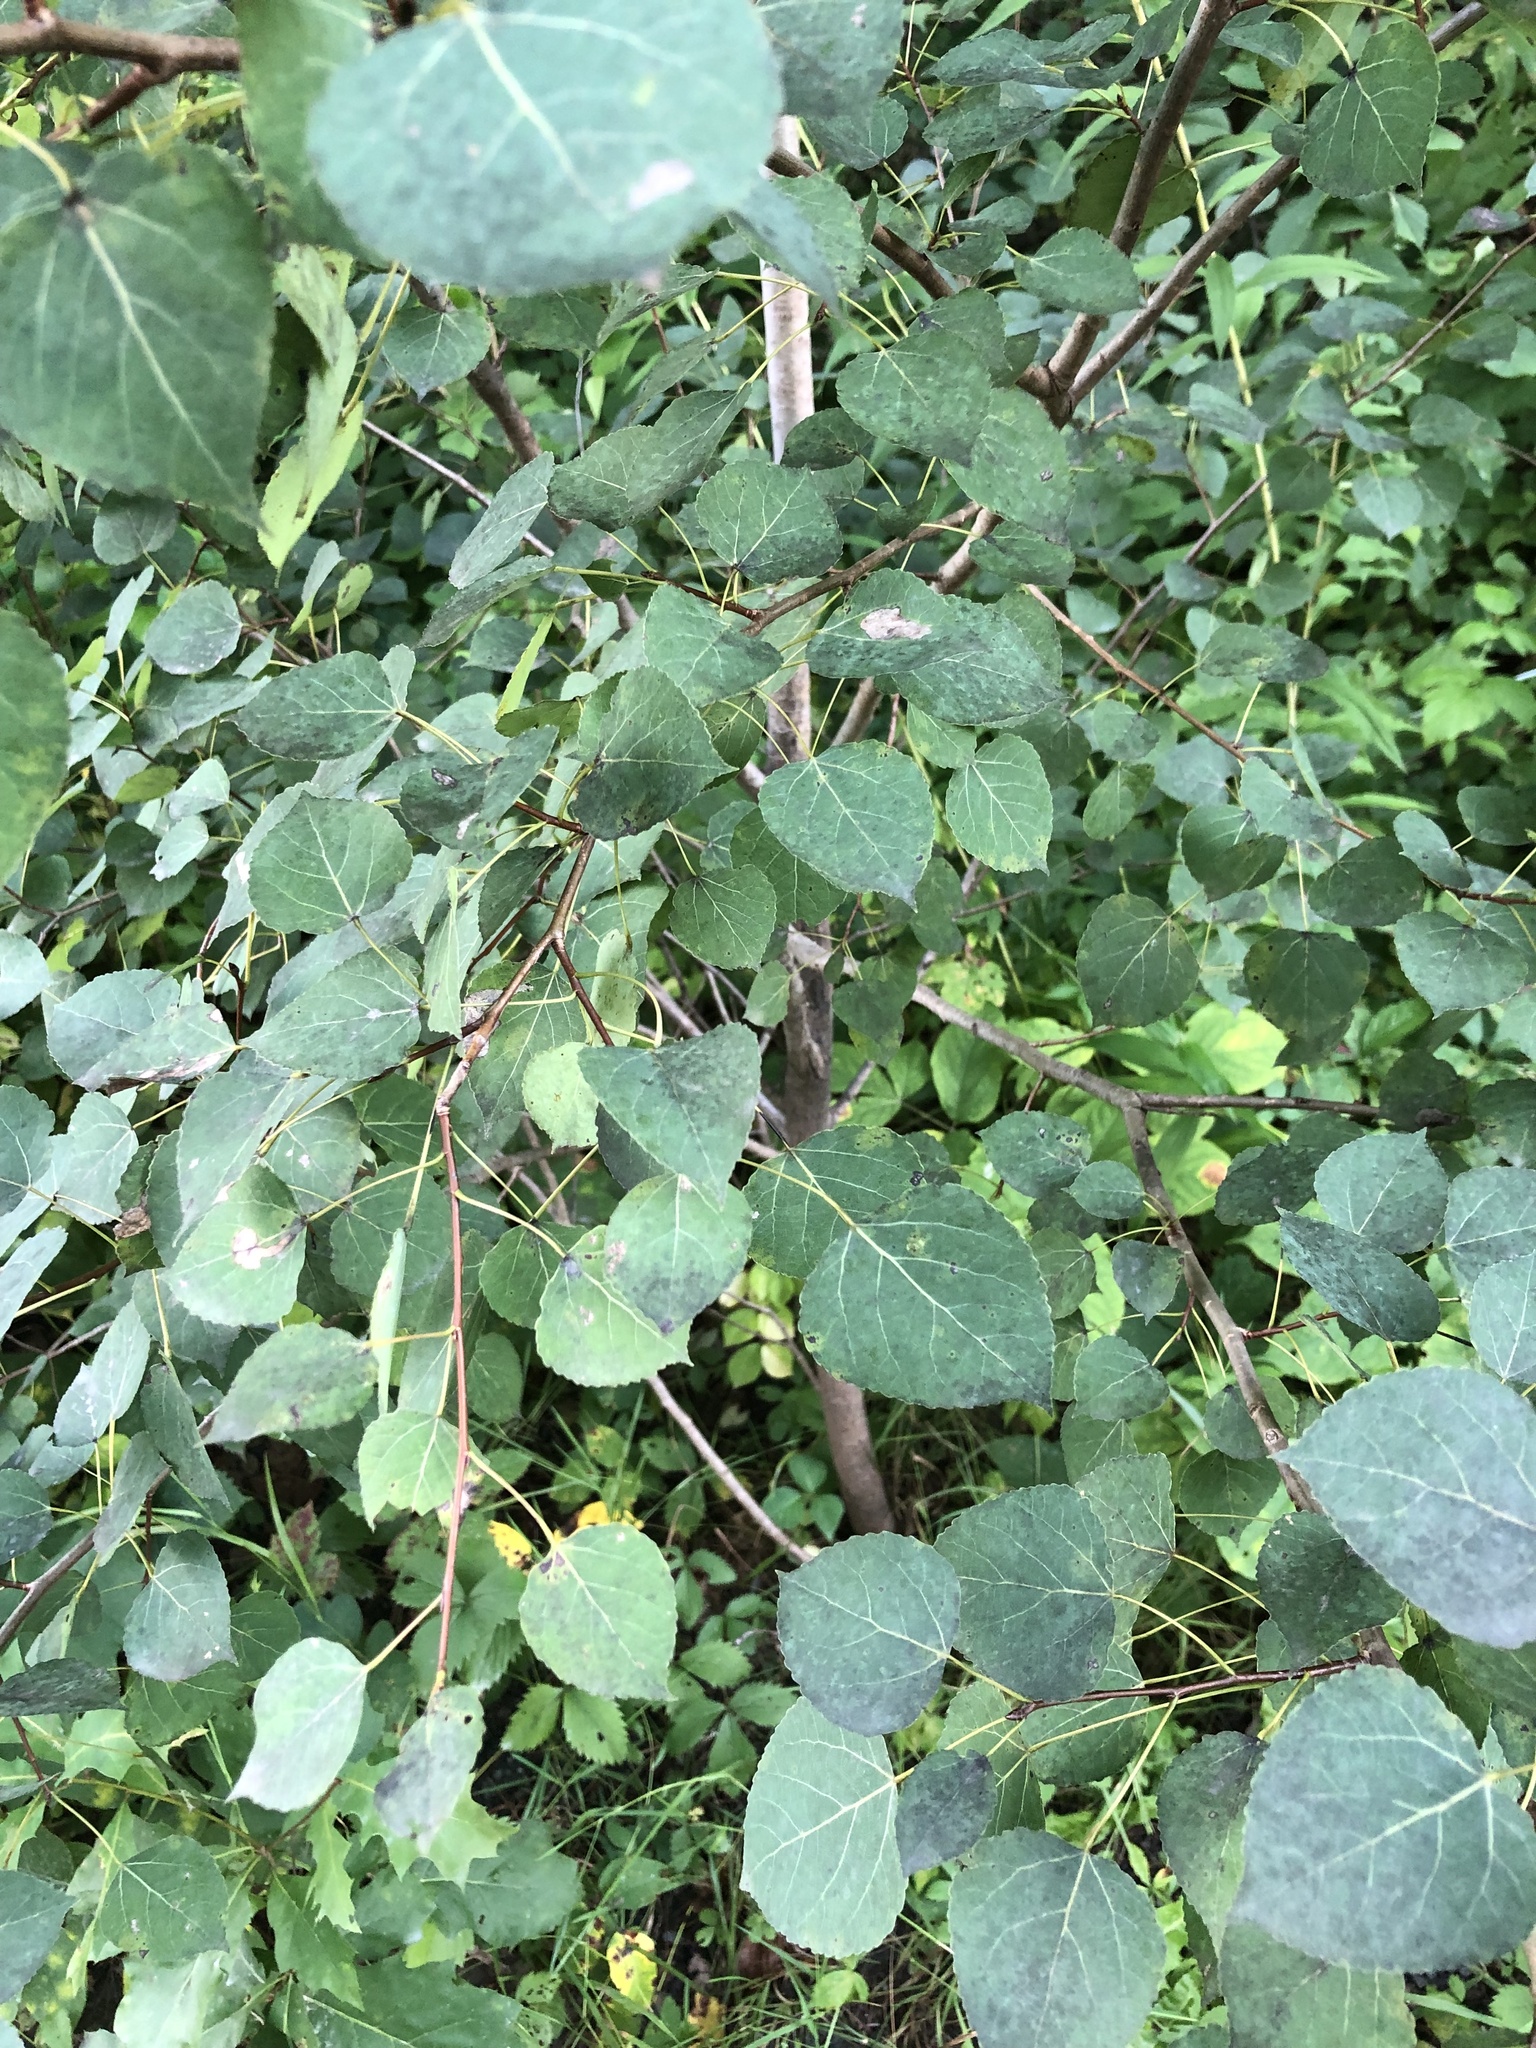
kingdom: Plantae
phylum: Tracheophyta
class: Magnoliopsida
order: Malpighiales
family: Salicaceae
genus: Populus
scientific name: Populus tremuloides
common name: Quaking aspen
